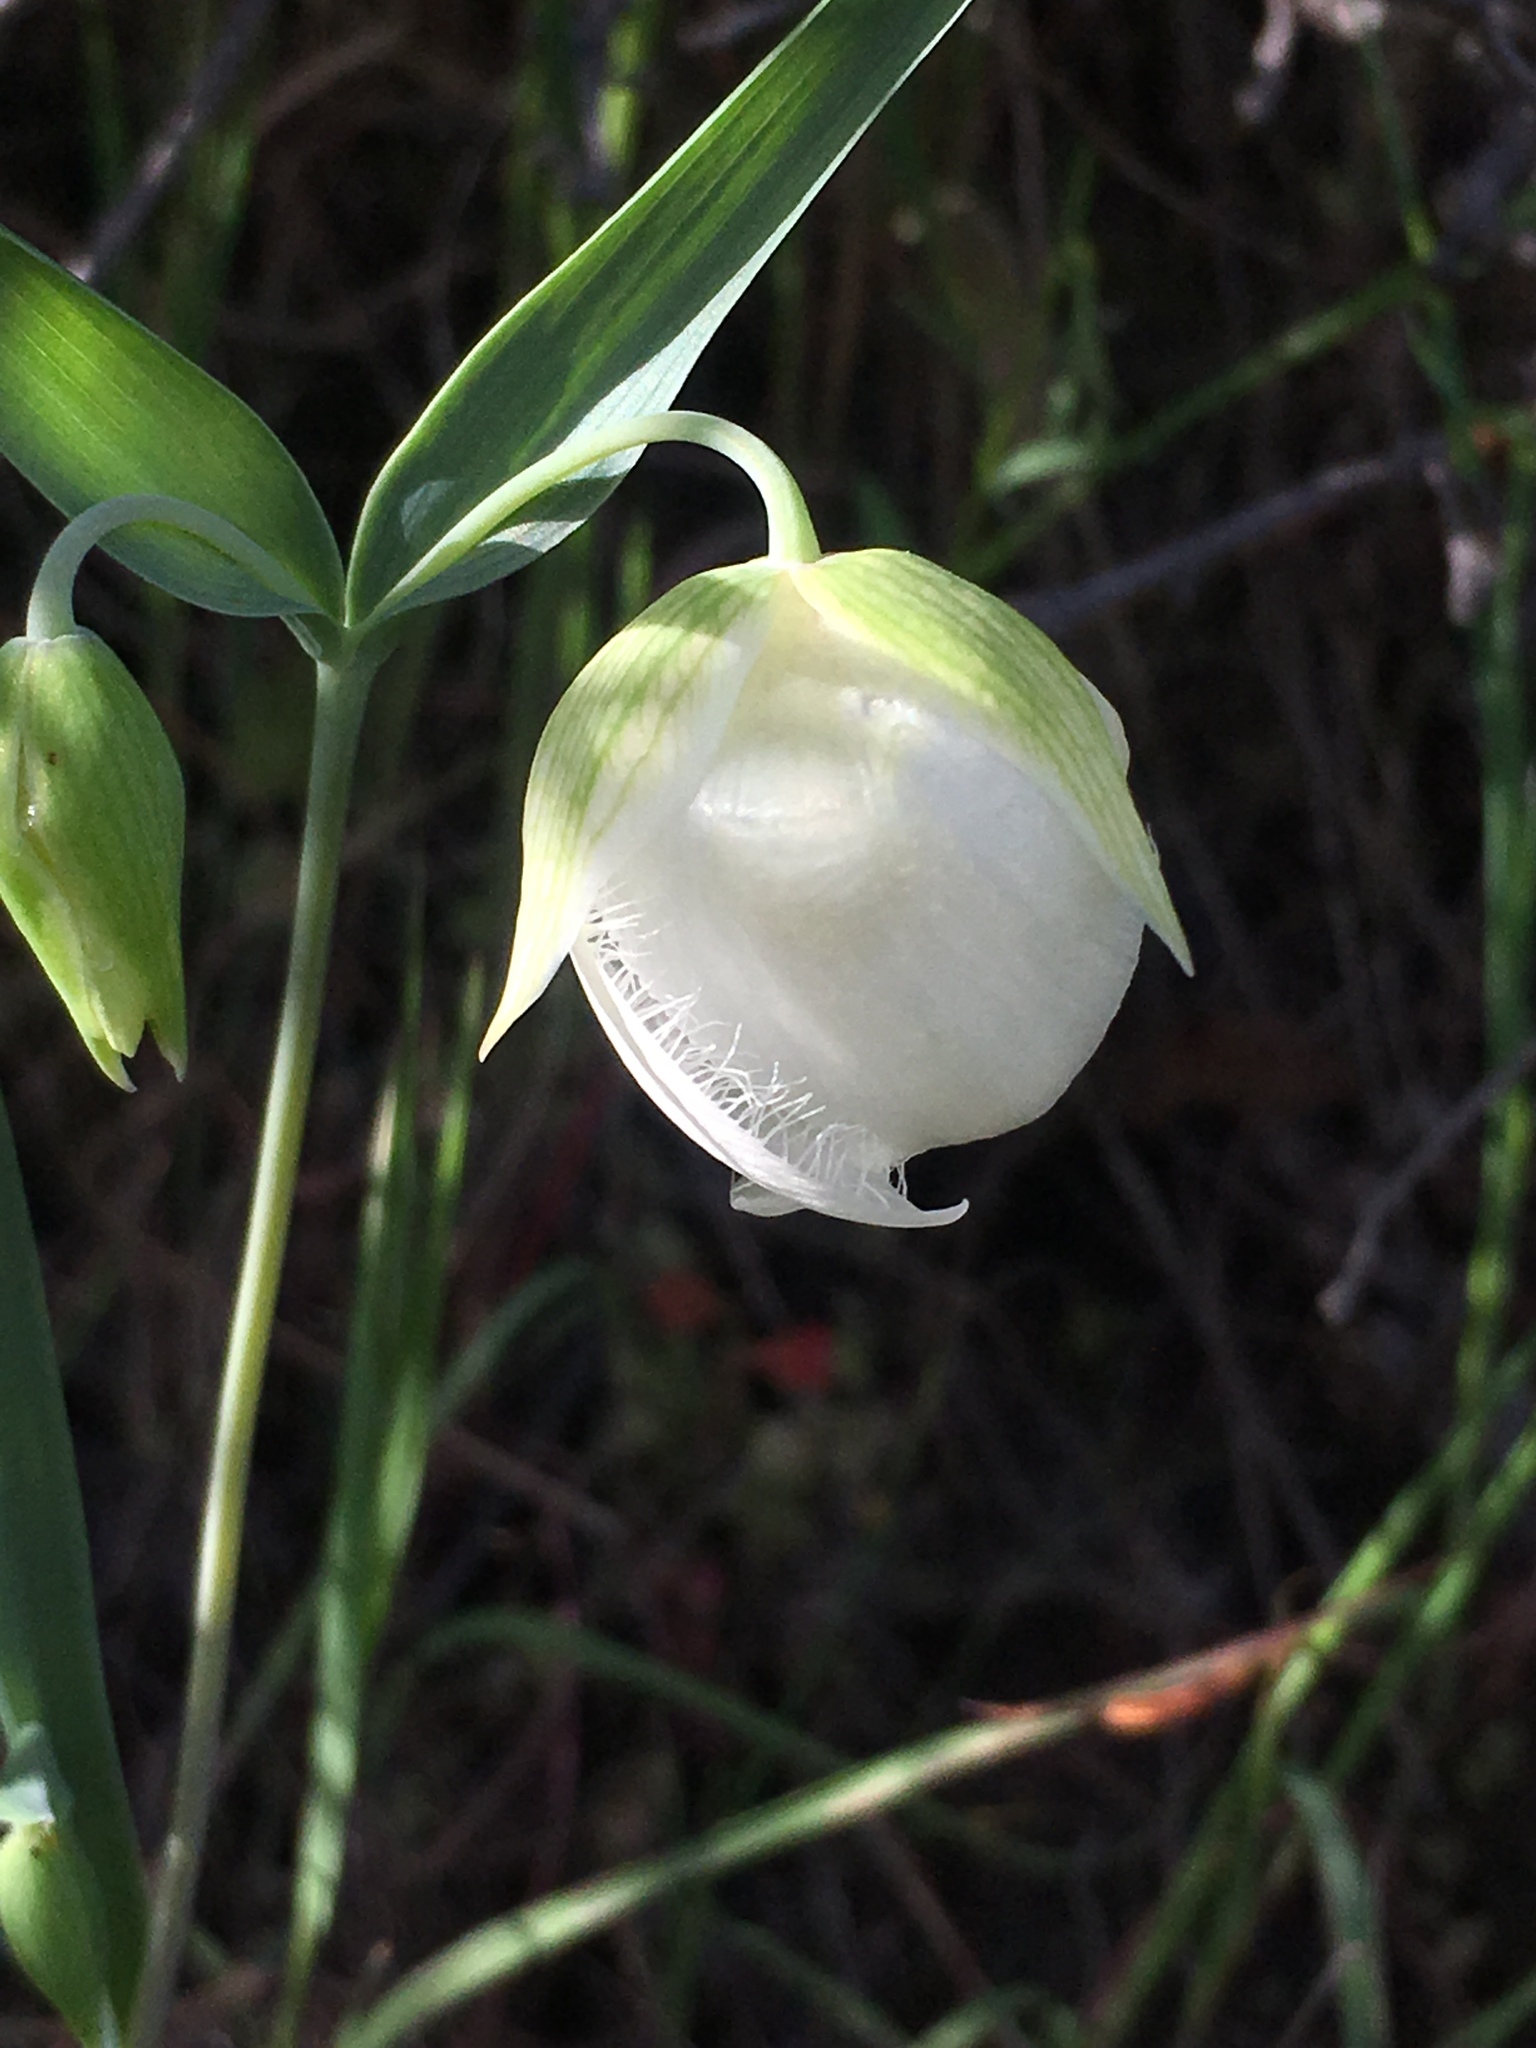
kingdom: Plantae
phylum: Tracheophyta
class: Liliopsida
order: Liliales
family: Liliaceae
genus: Calochortus
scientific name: Calochortus albus
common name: Fairy-lantern
